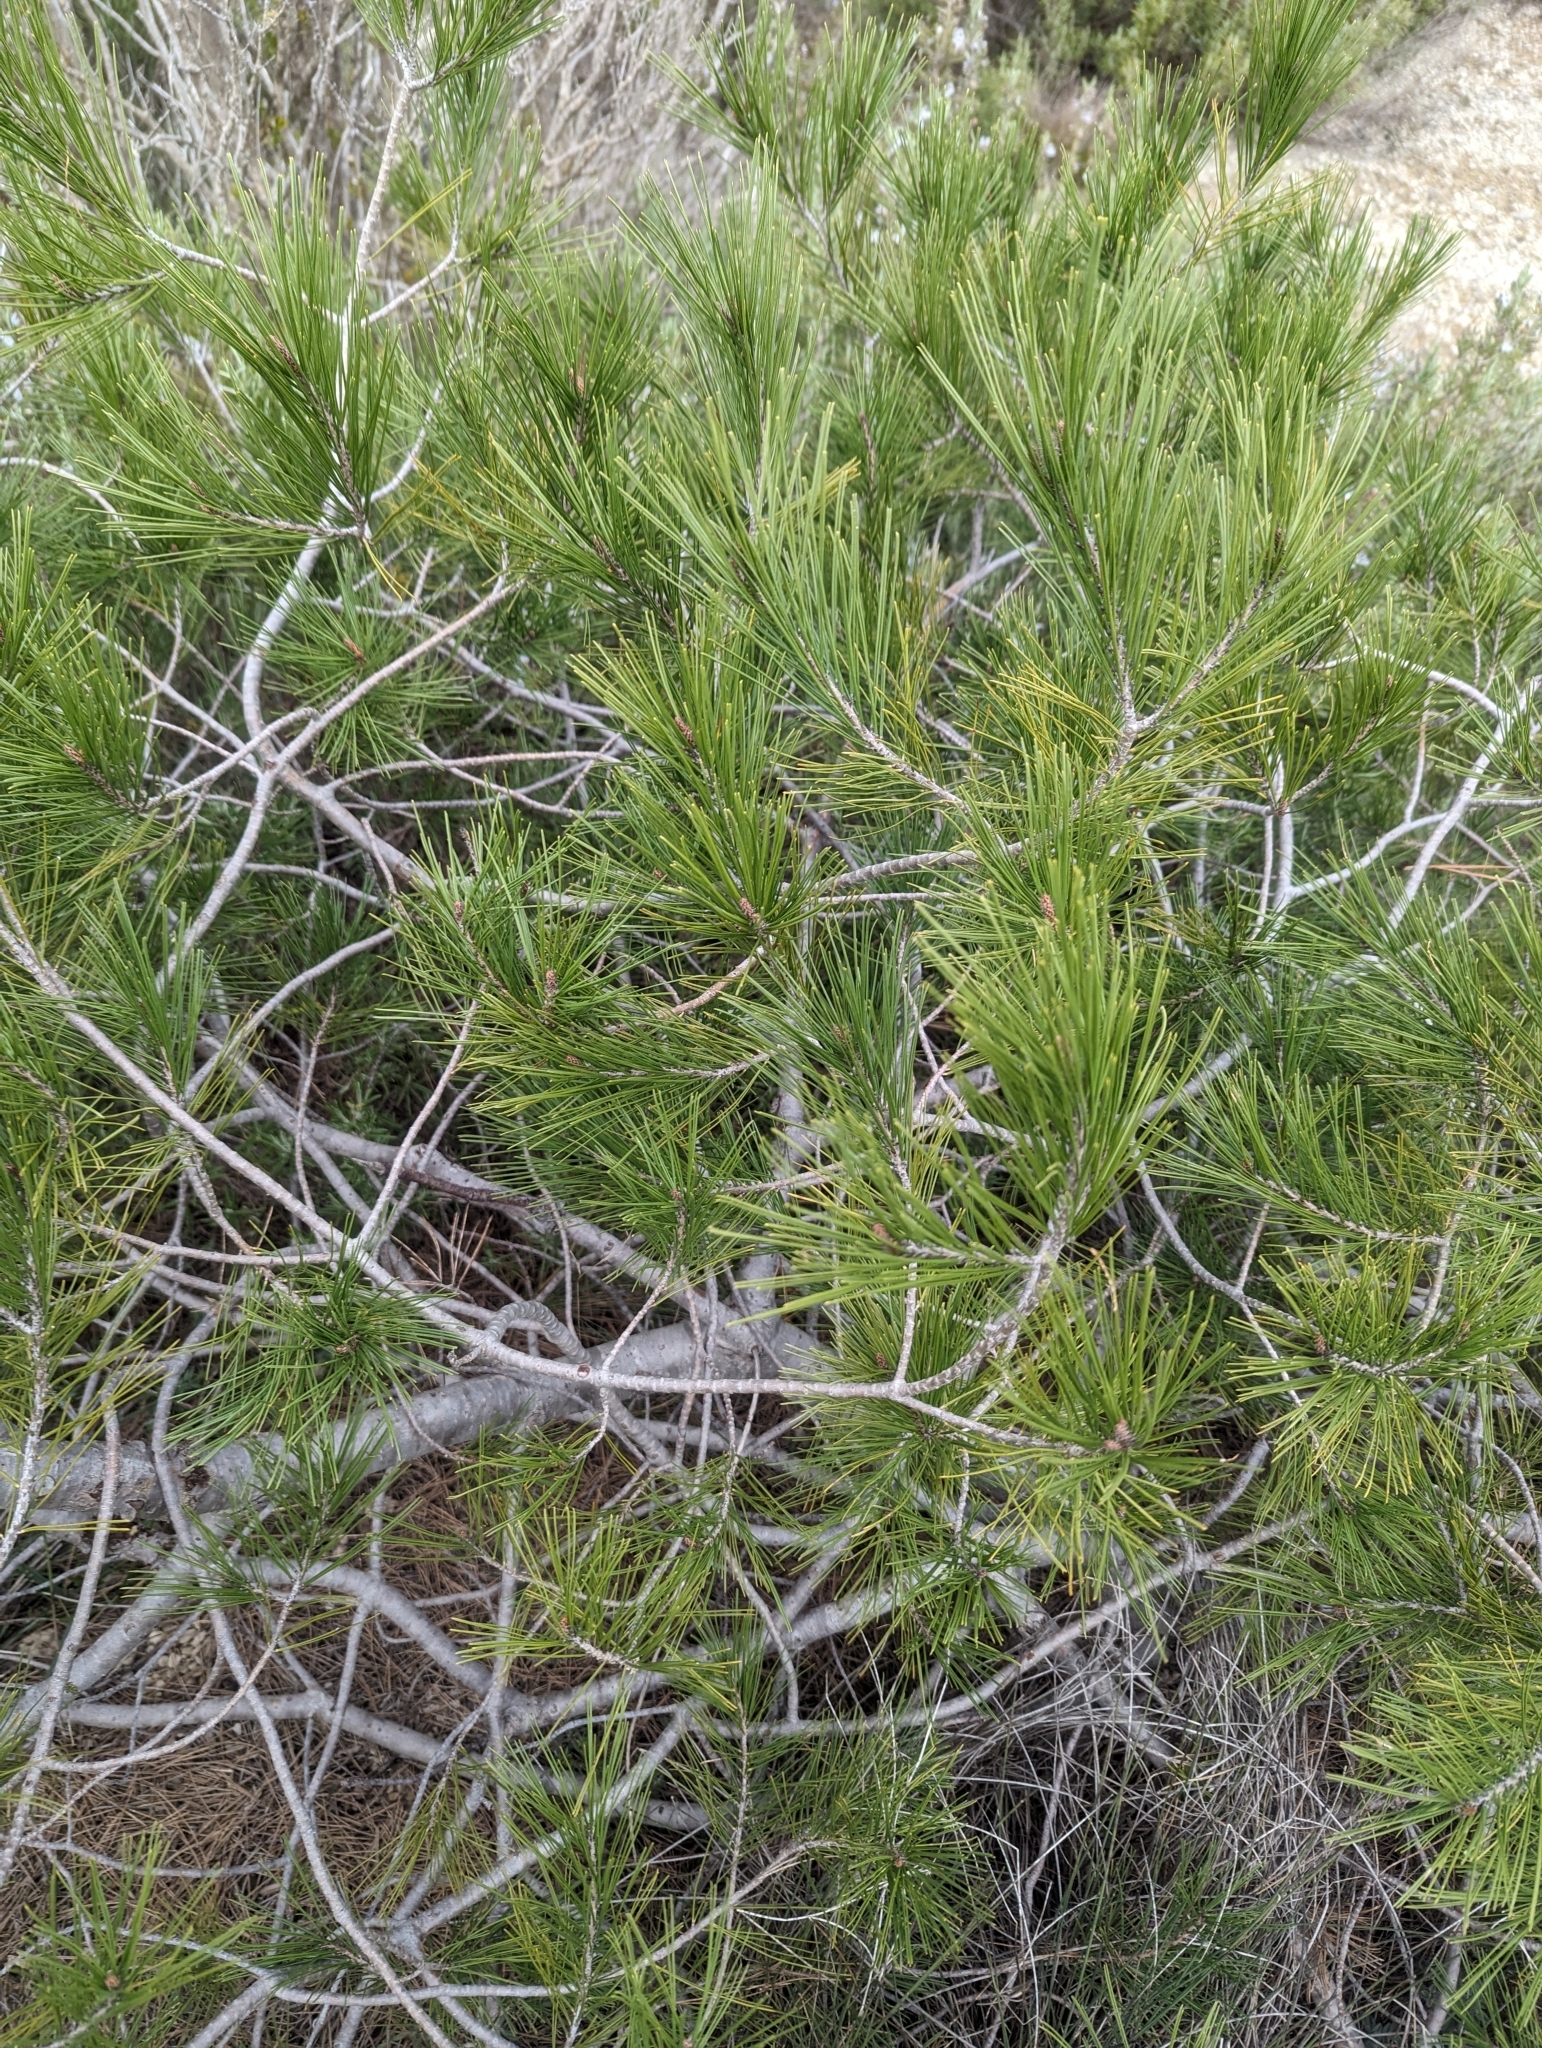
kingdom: Plantae
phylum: Tracheophyta
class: Pinopsida
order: Pinales
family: Pinaceae
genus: Pinus
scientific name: Pinus halepensis
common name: Aleppo pine
